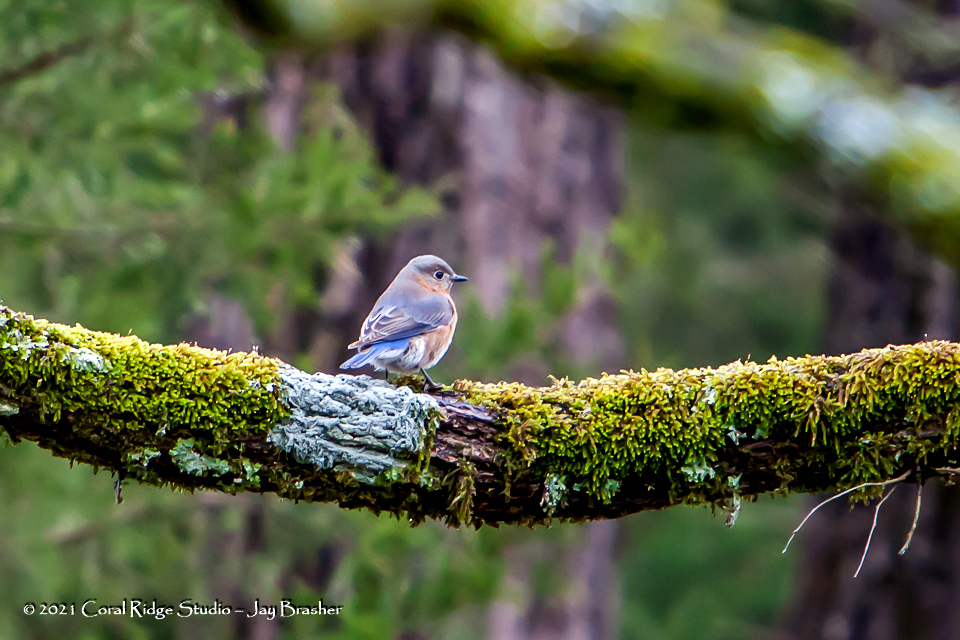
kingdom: Animalia
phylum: Chordata
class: Aves
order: Passeriformes
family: Turdidae
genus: Sialia
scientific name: Sialia sialis
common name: Eastern bluebird
